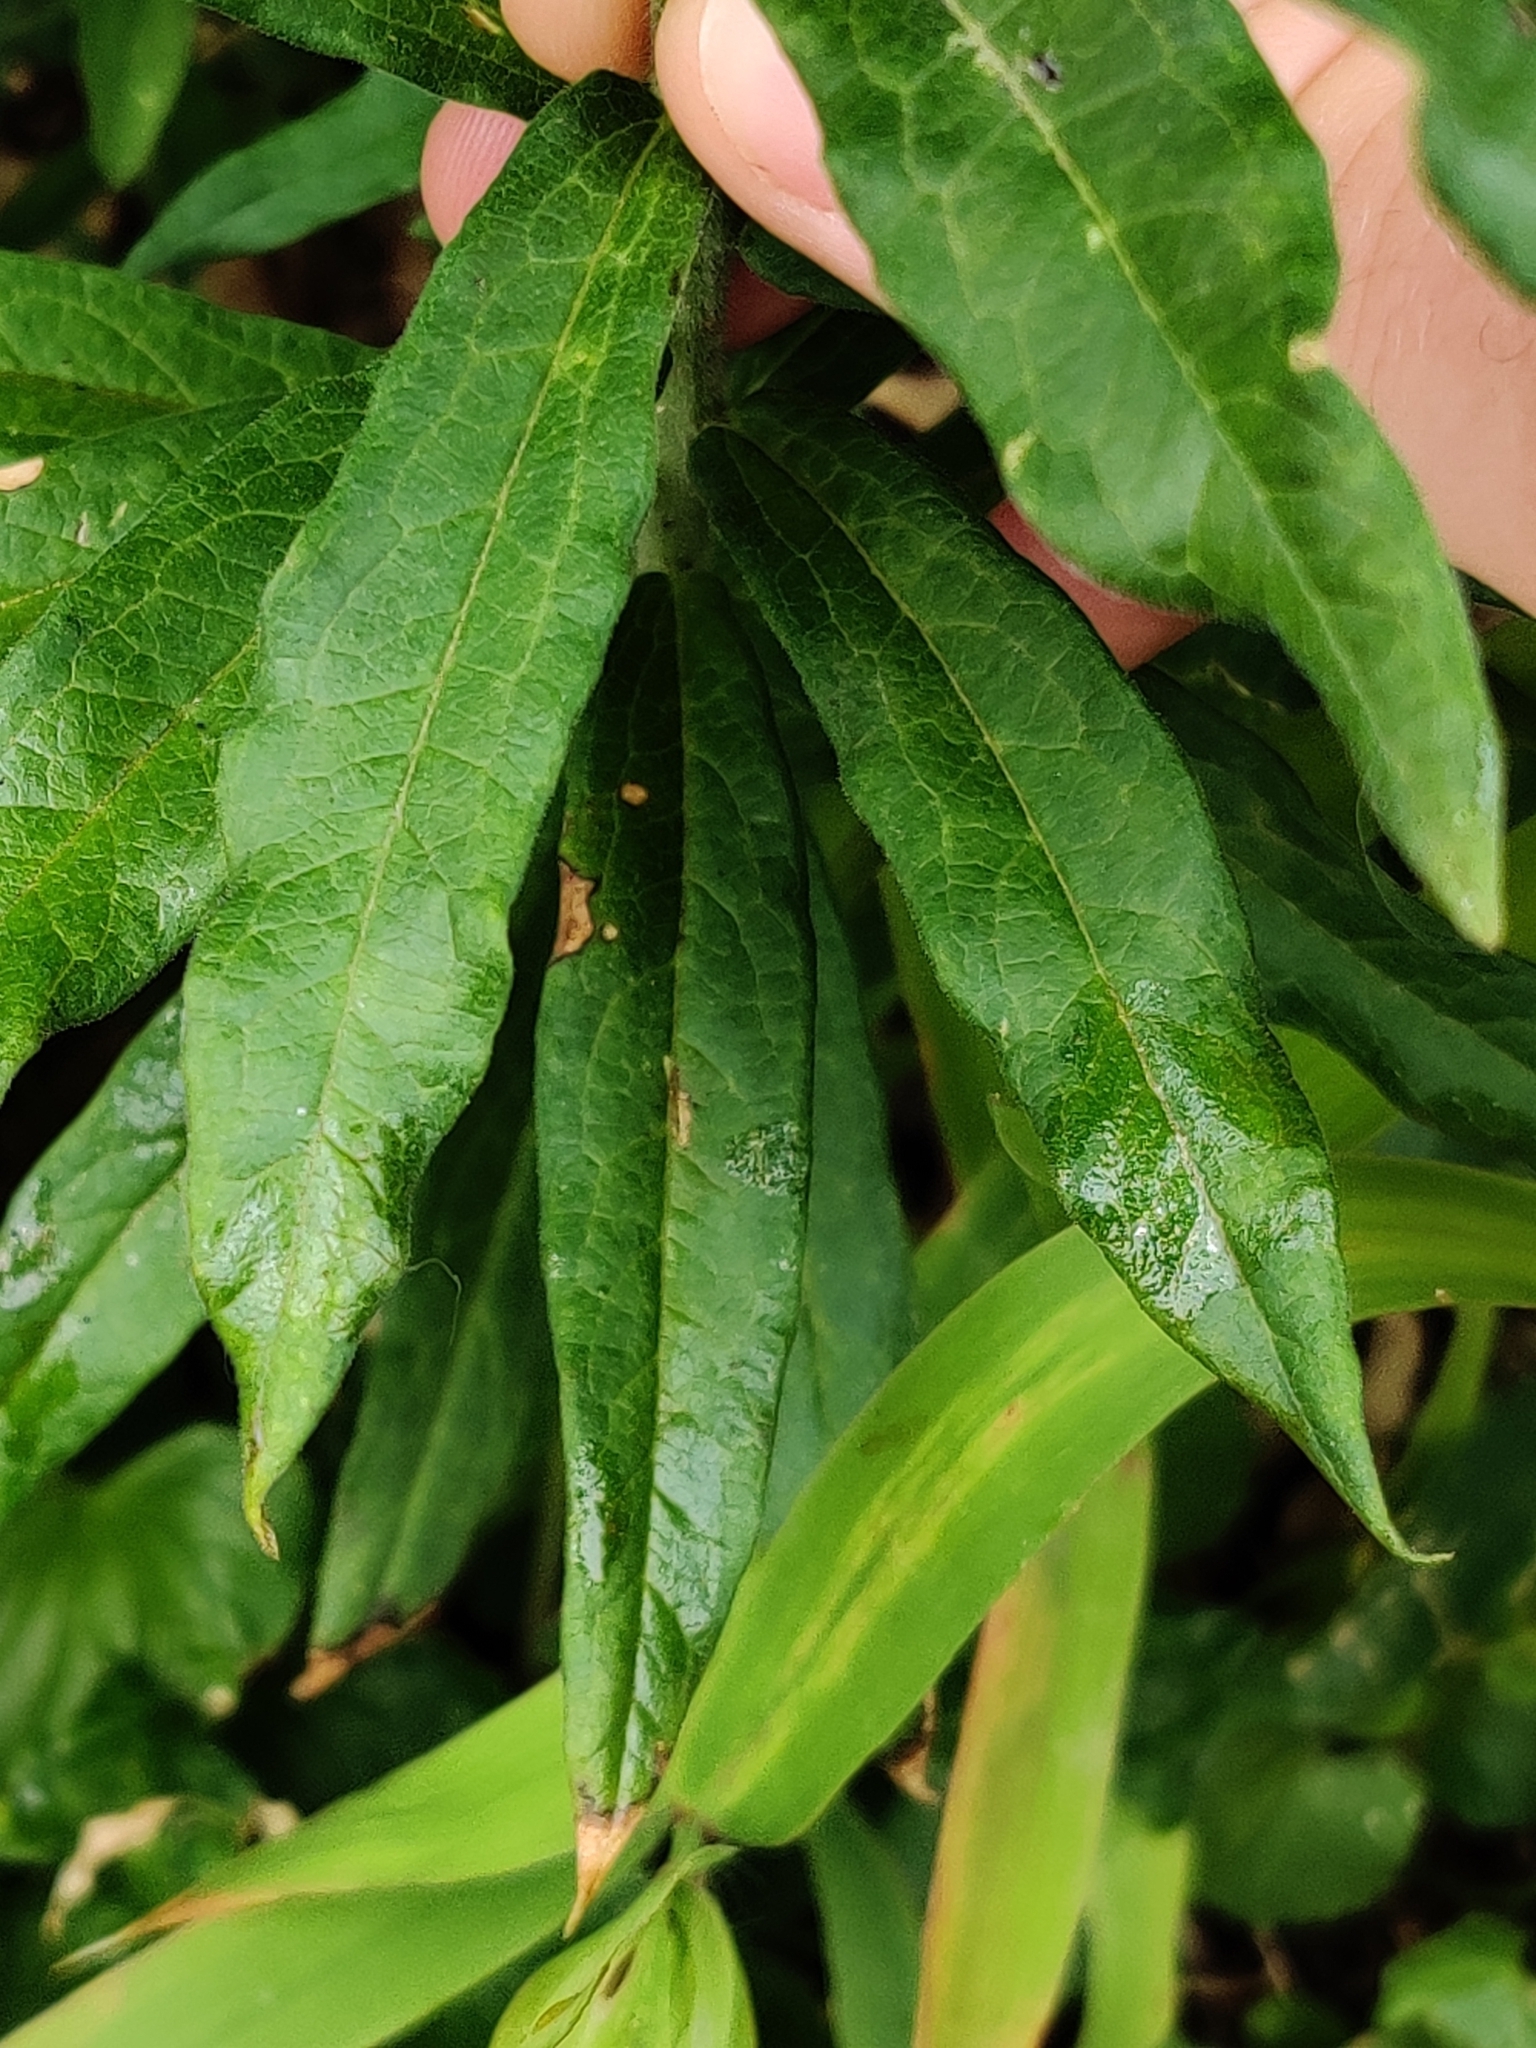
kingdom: Plantae
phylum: Tracheophyta
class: Magnoliopsida
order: Gentianales
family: Apocynaceae
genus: Asclepias
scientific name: Asclepias tuberosa
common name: Butterfly milkweed
